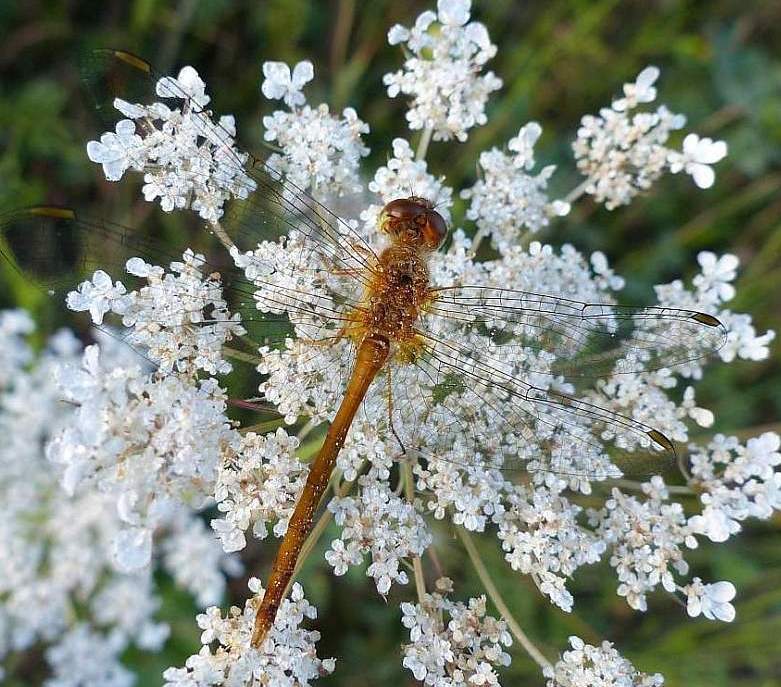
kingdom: Animalia
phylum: Arthropoda
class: Insecta
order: Odonata
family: Libellulidae
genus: Sympetrum
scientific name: Sympetrum vicinum
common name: Autumn meadowhawk
